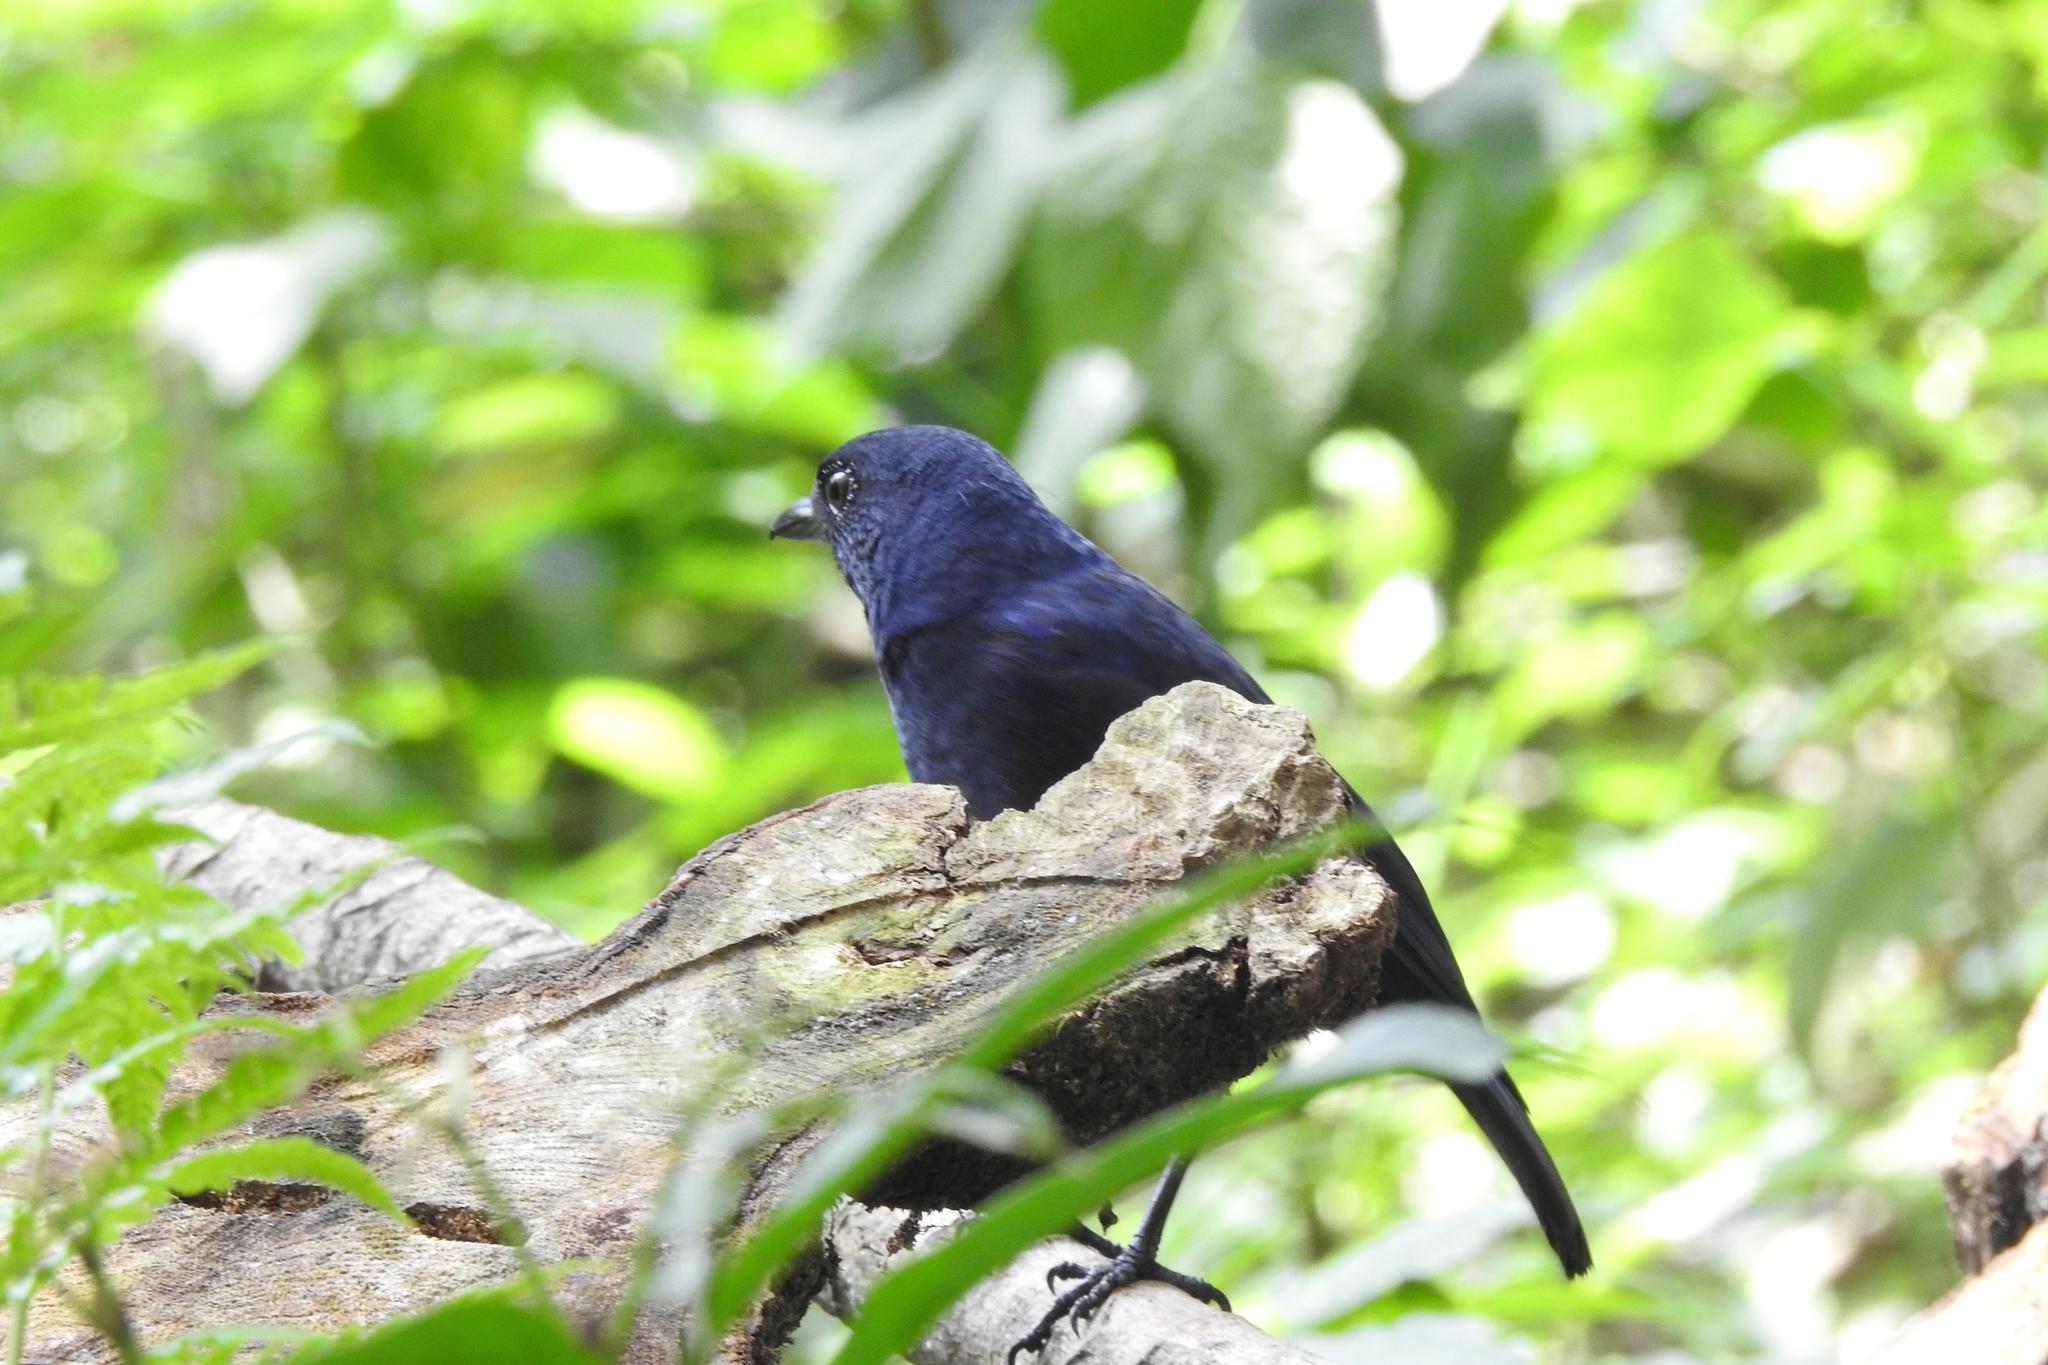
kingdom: Animalia
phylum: Chordata
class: Aves
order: Passeriformes
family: Muscicapidae
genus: Myophonus
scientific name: Myophonus glaucinus
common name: Javan whistling-thrush
